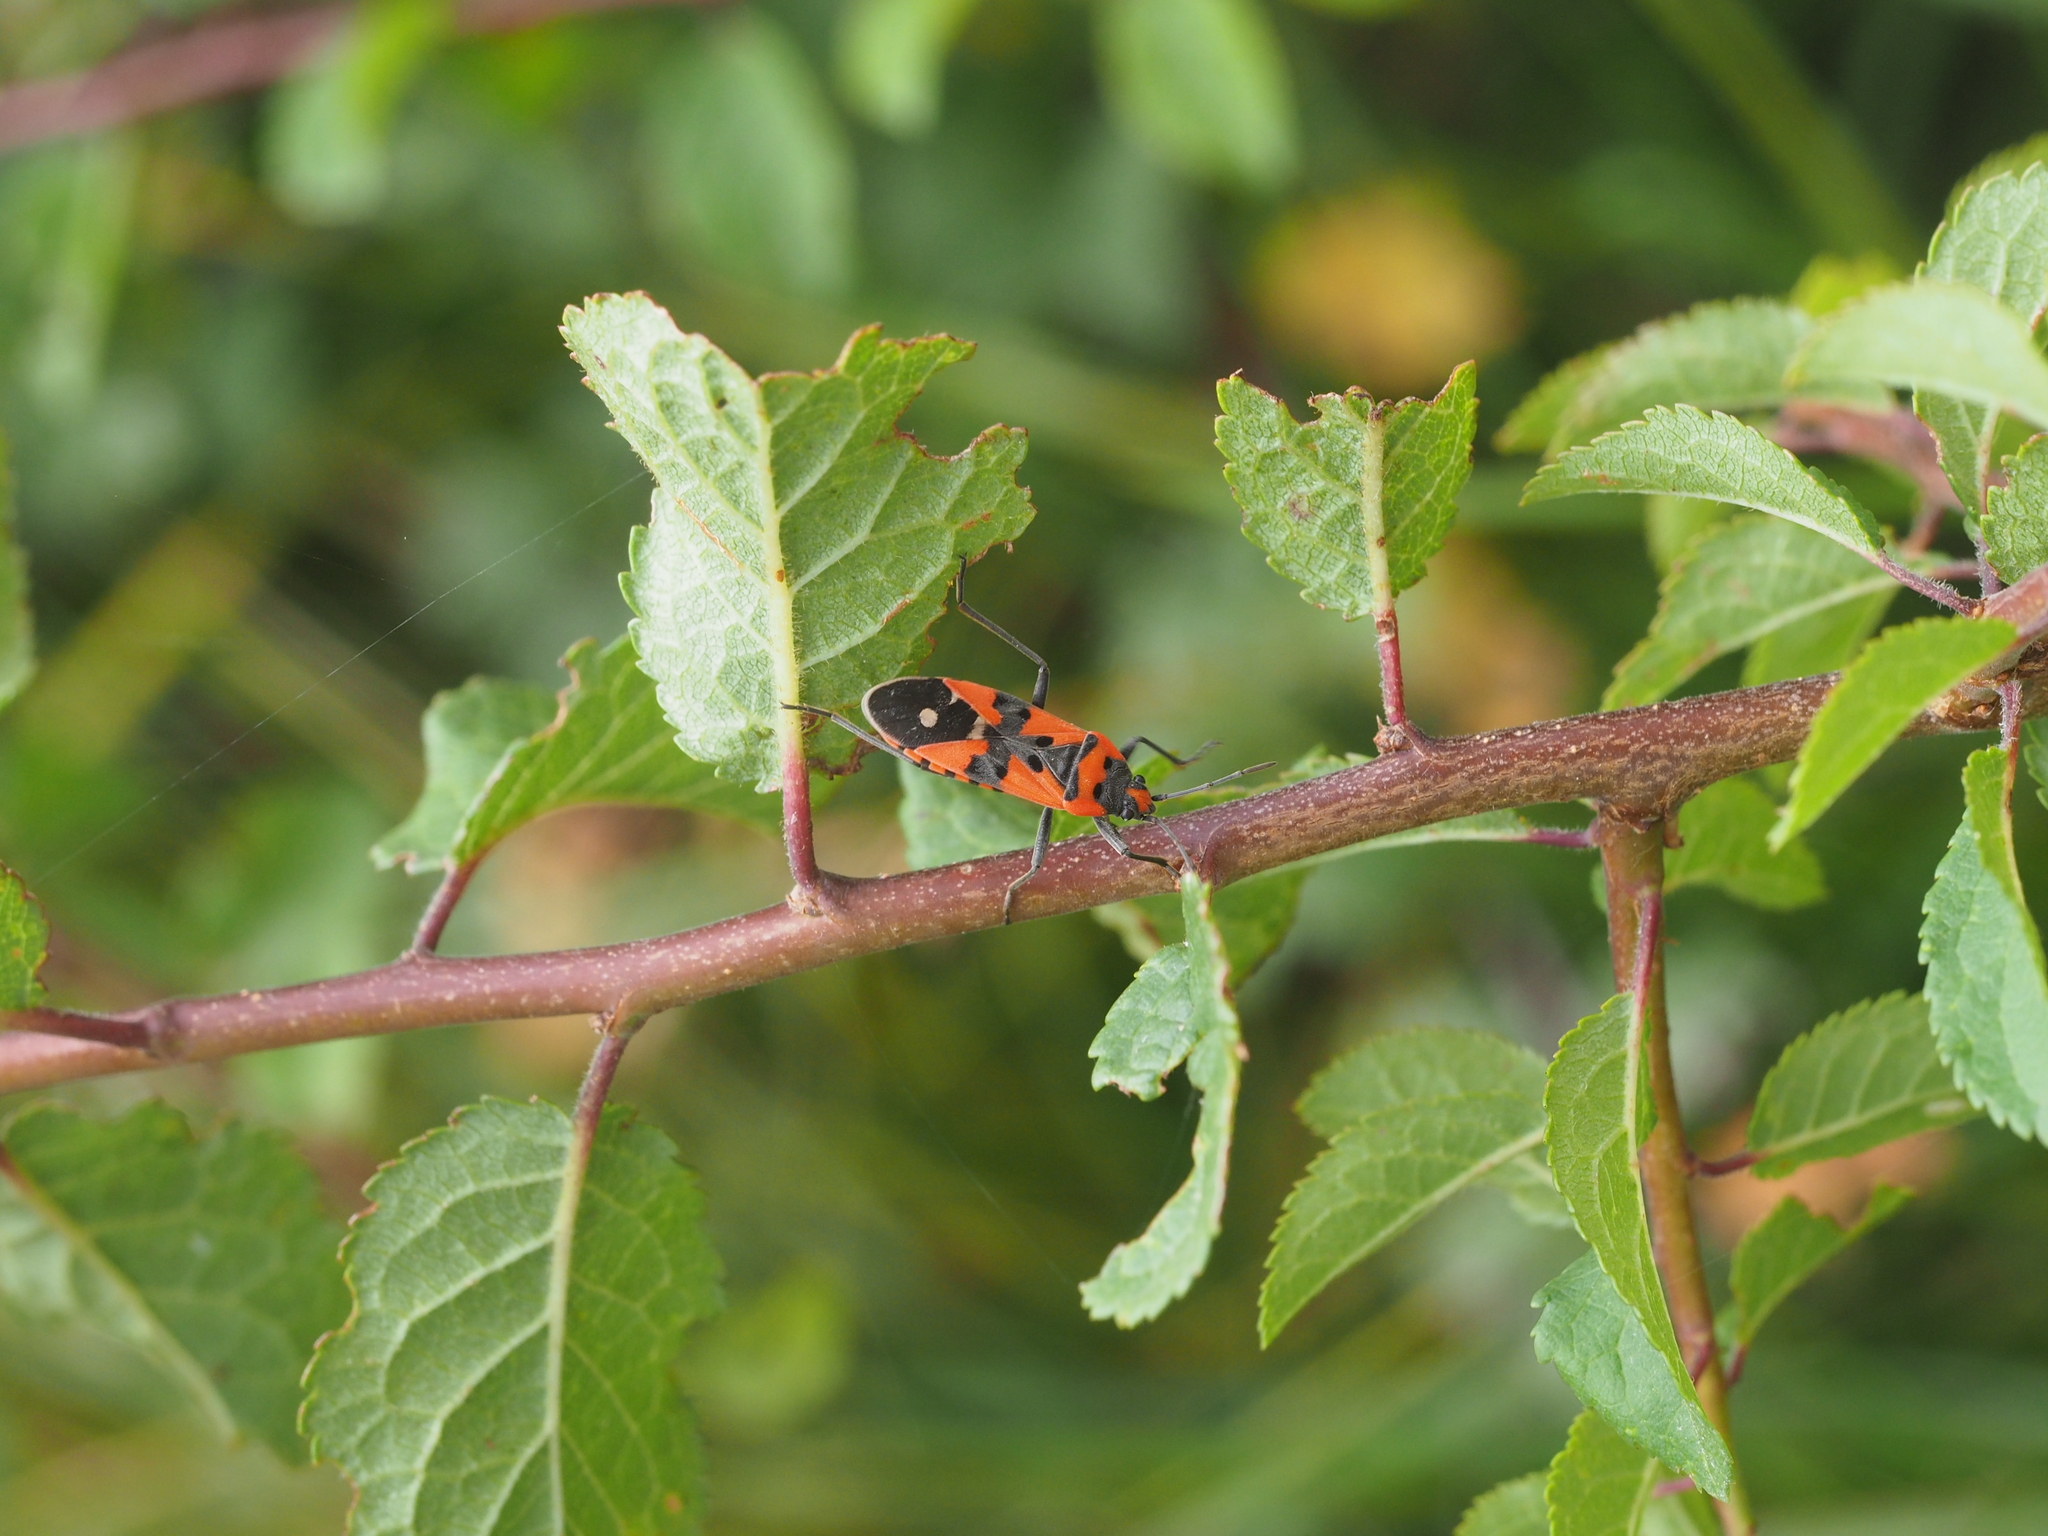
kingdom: Animalia
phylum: Arthropoda
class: Insecta
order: Hemiptera
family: Lygaeidae
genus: Lygaeus
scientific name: Lygaeus equestris
